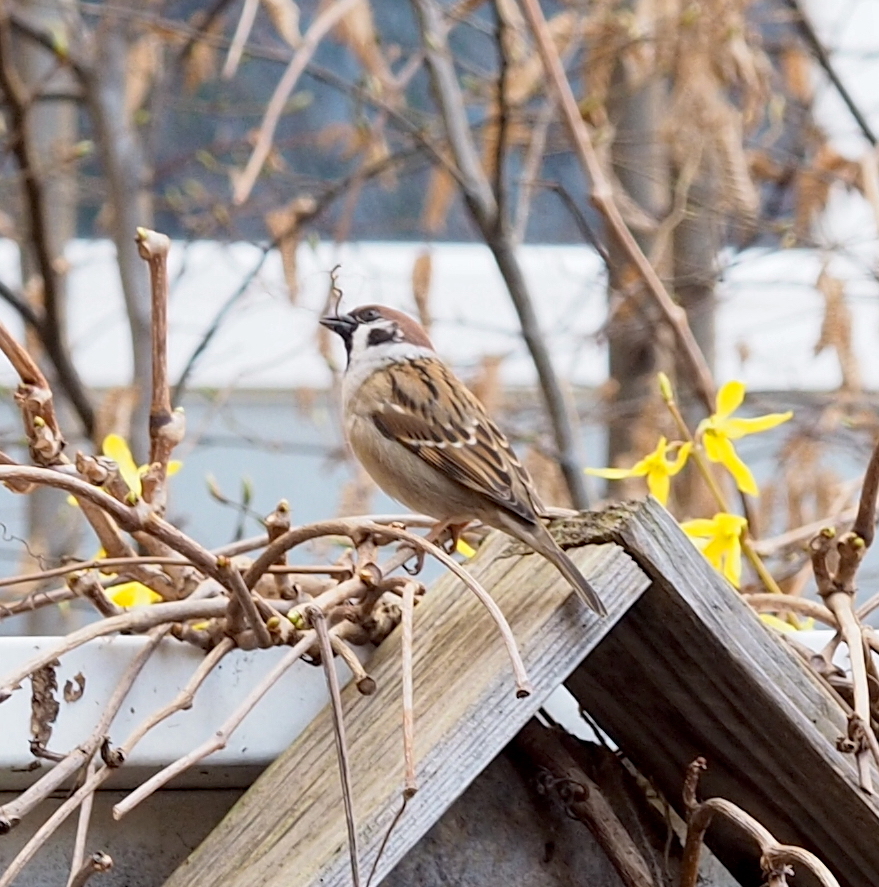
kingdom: Animalia
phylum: Chordata
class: Aves
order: Passeriformes
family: Passeridae
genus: Passer
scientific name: Passer montanus
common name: Eurasian tree sparrow
